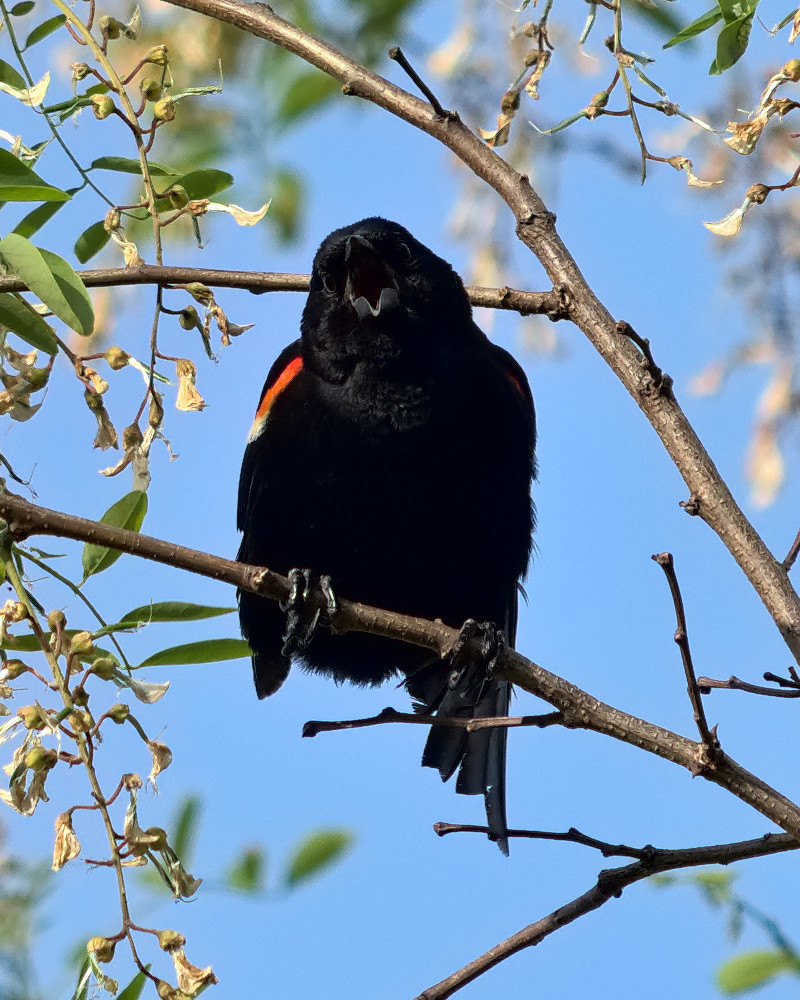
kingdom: Animalia
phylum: Chordata
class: Aves
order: Passeriformes
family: Icteridae
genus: Agelaius
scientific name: Agelaius phoeniceus
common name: Red-winged blackbird
